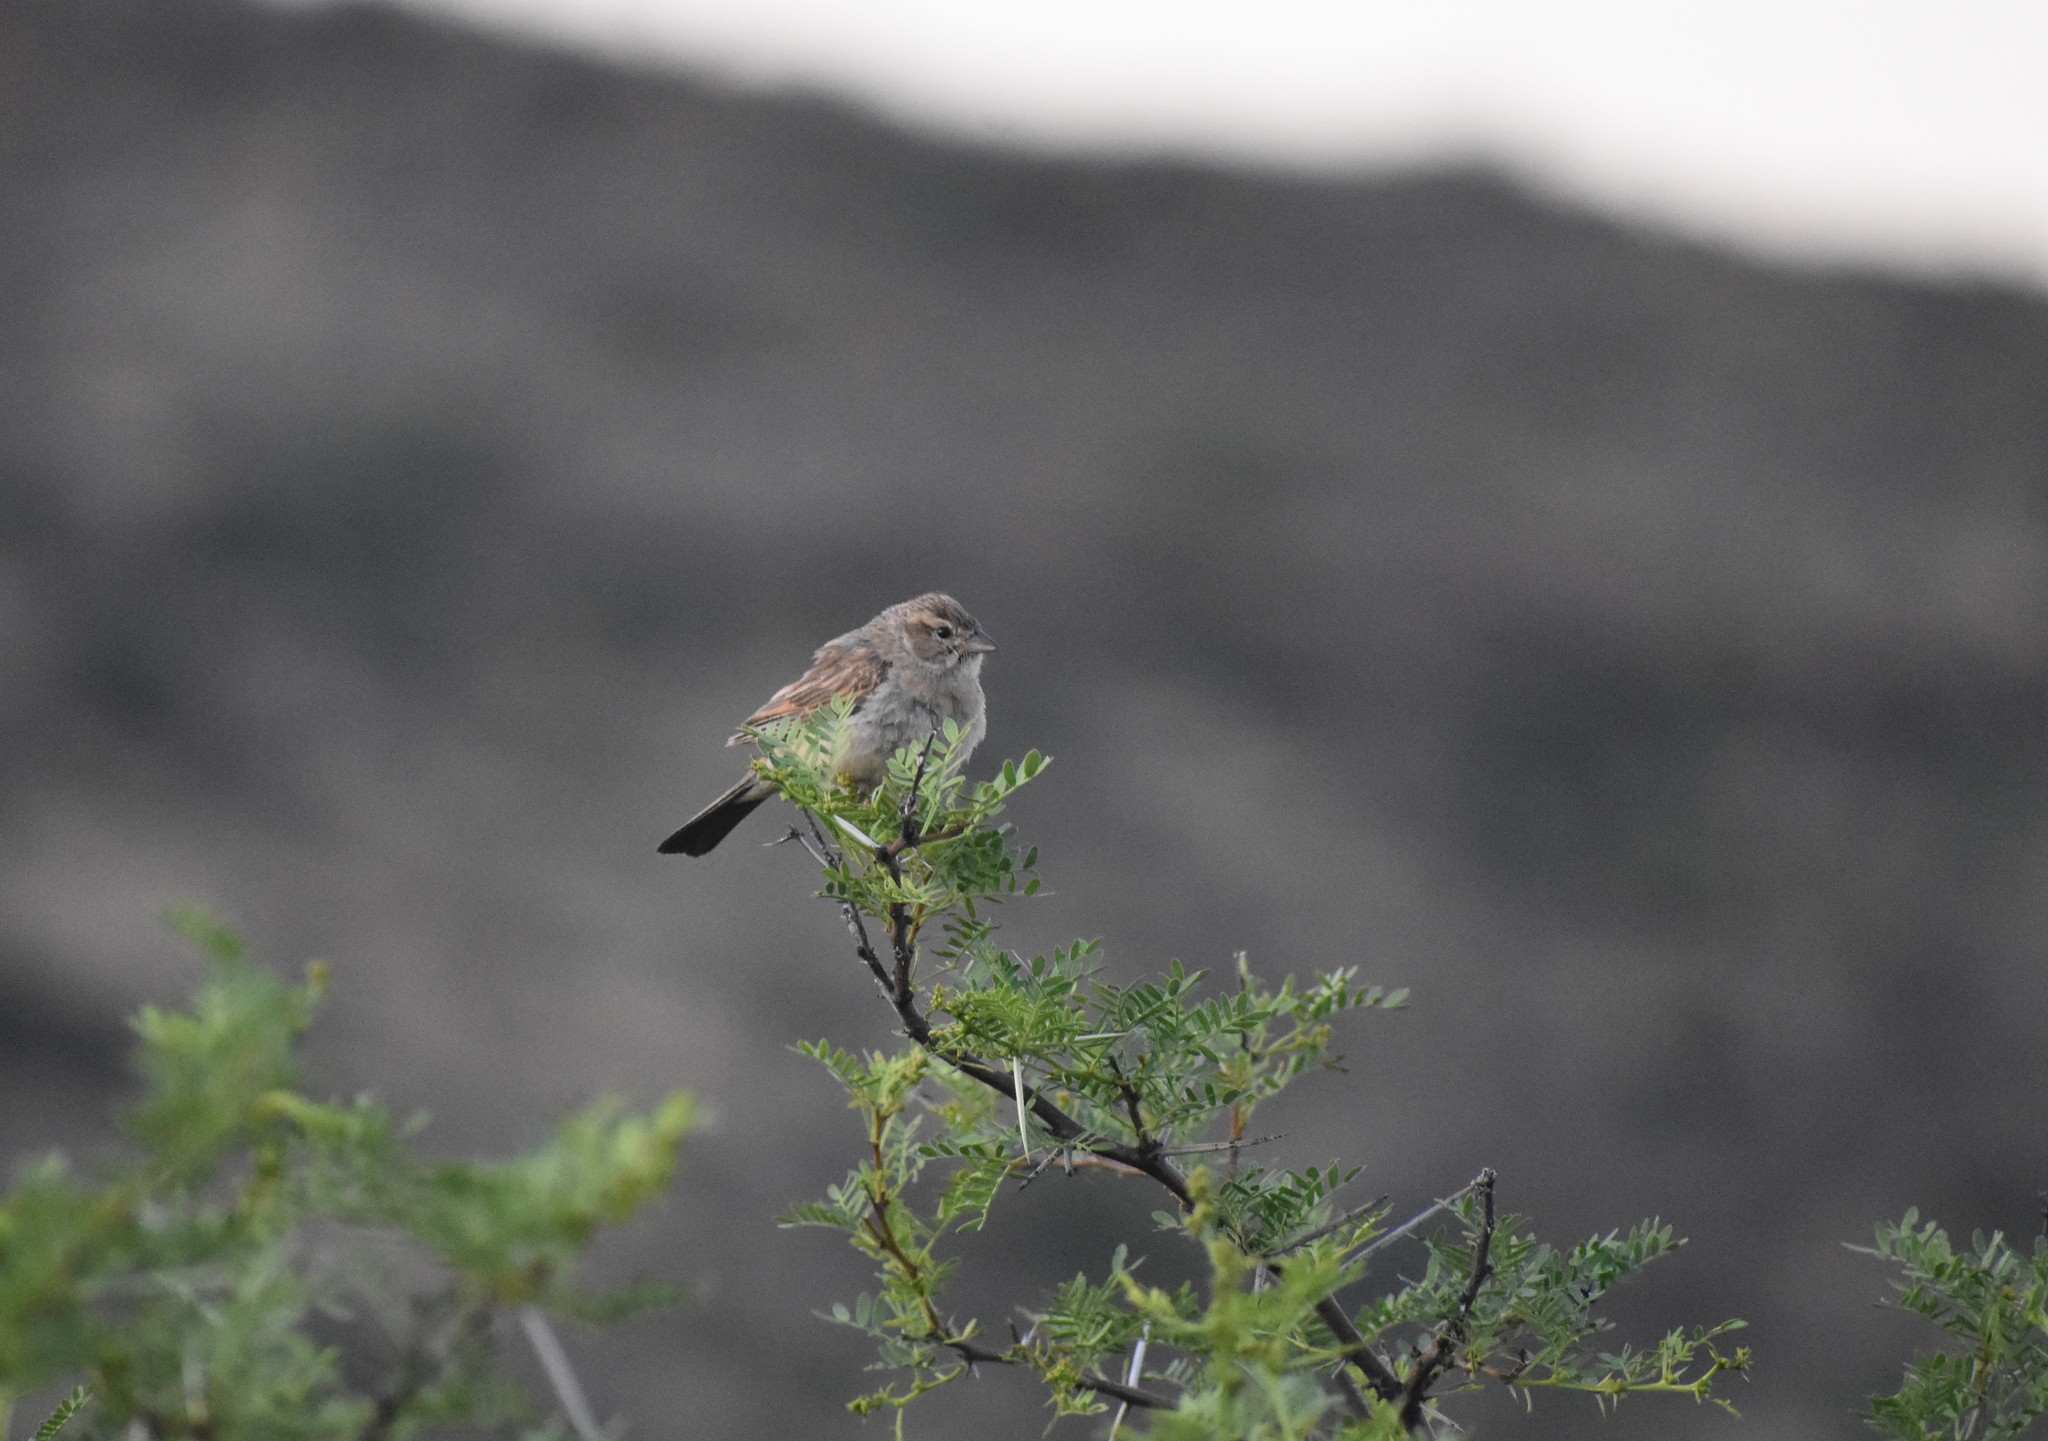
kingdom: Animalia
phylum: Chordata
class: Aves
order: Passeriformes
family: Emberizidae
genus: Emberiza
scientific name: Emberiza impetuani
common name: Lark-like bunting
